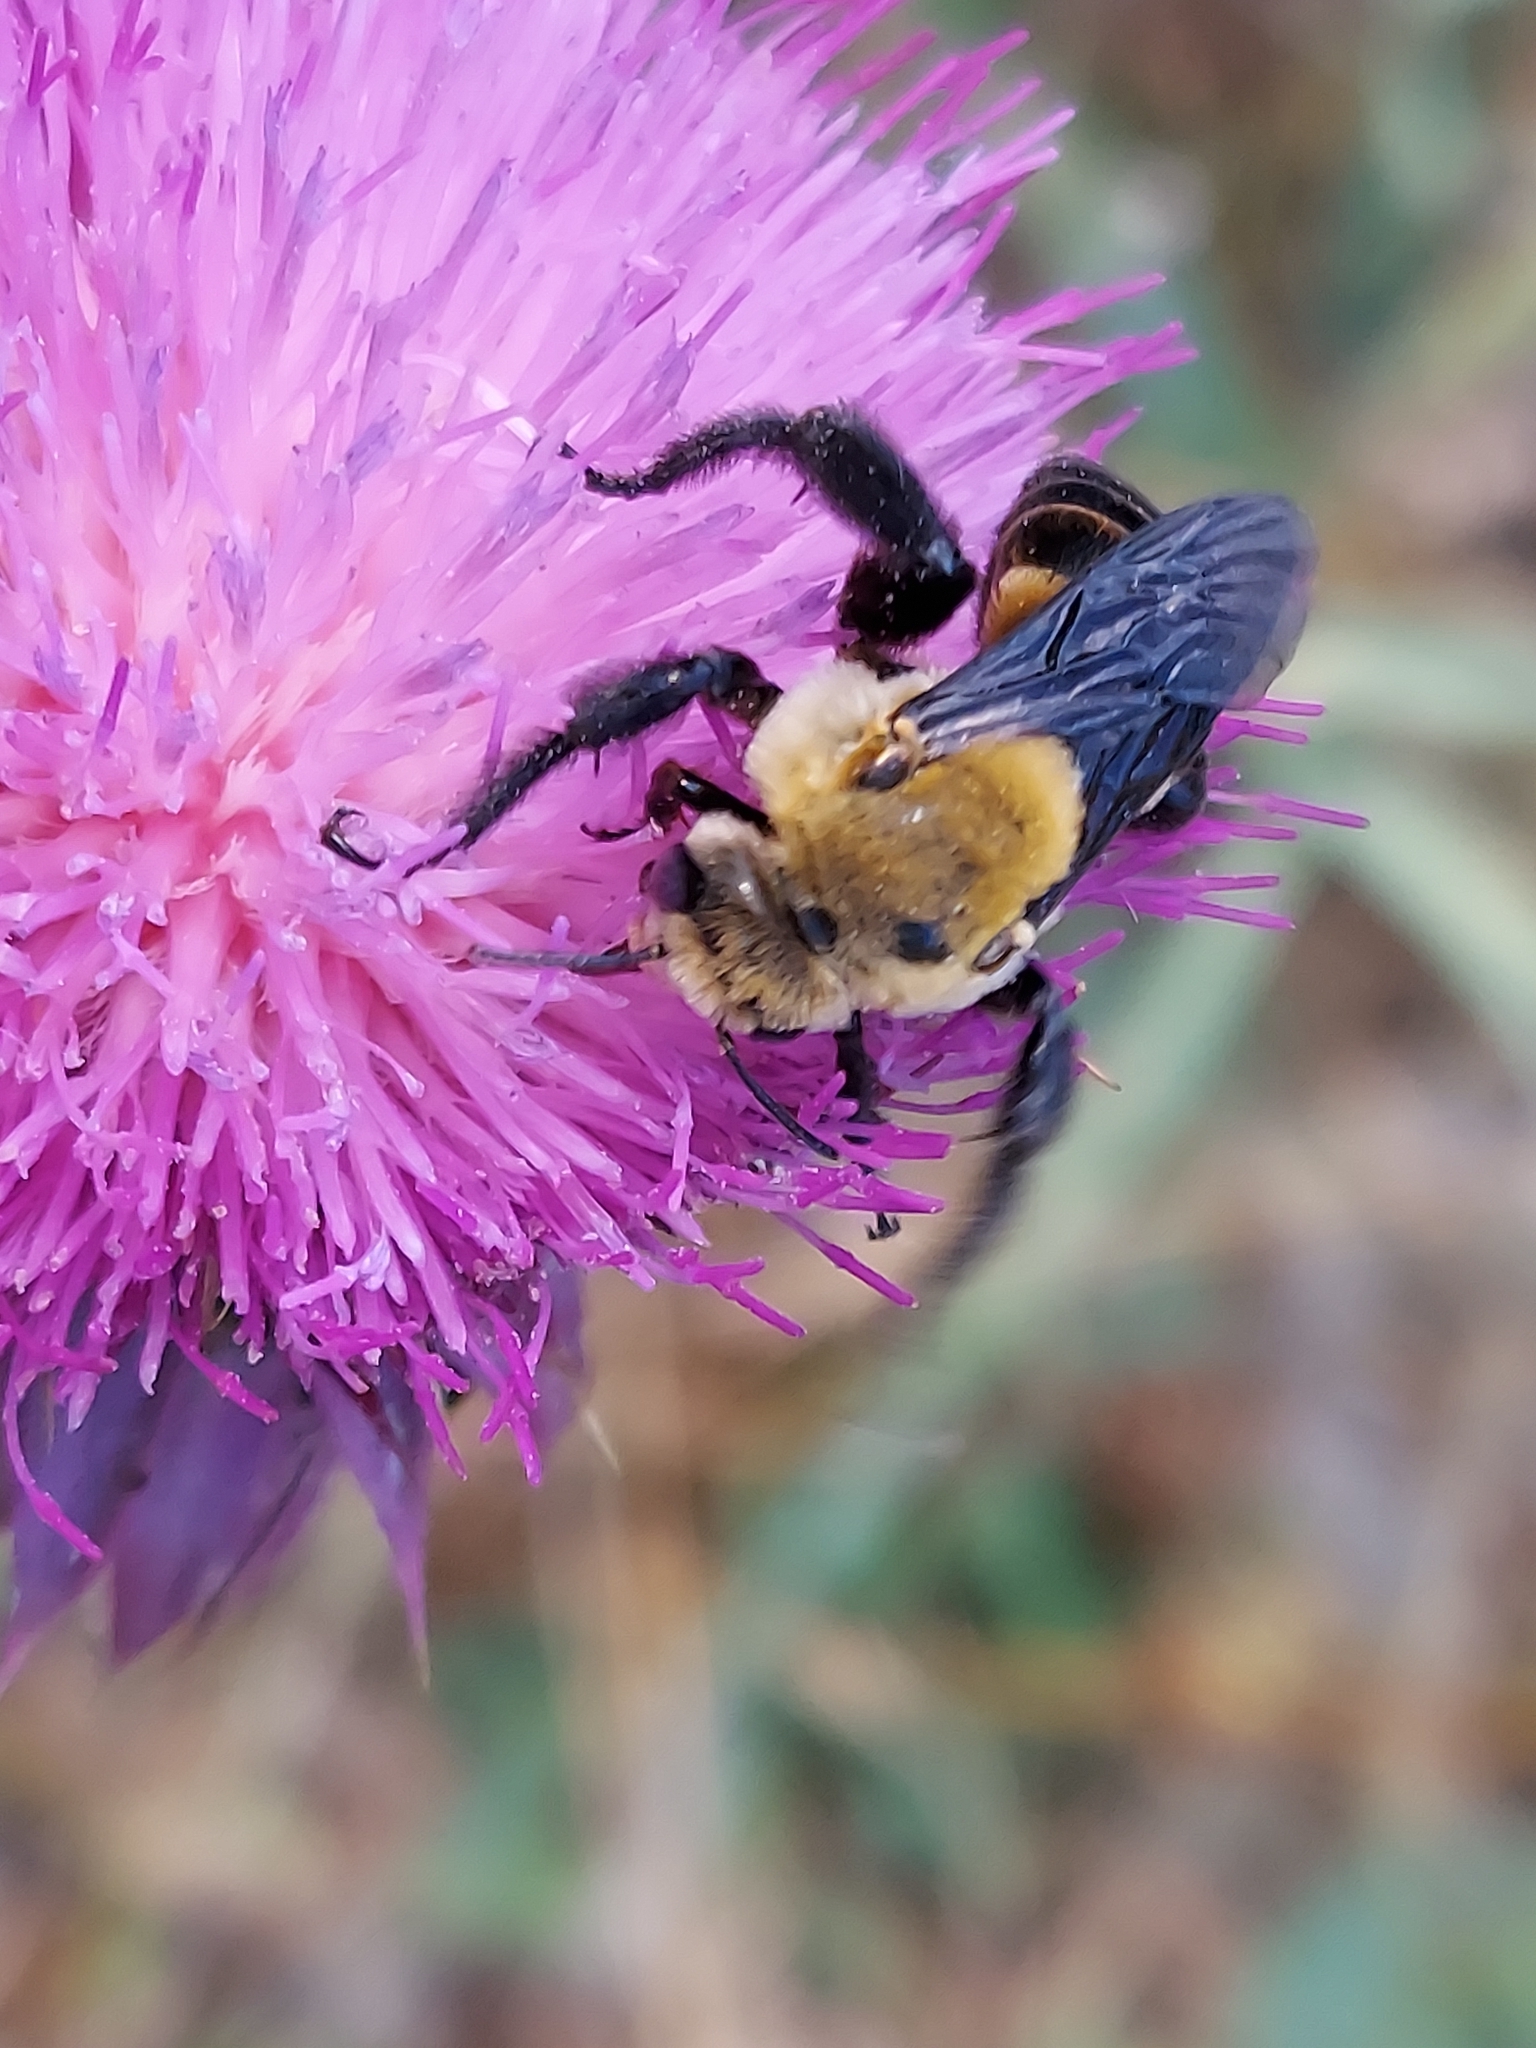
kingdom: Animalia
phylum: Arthropoda
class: Insecta
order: Hymenoptera
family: Apidae
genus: Ptilothrix
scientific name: Ptilothrix bombiformis
